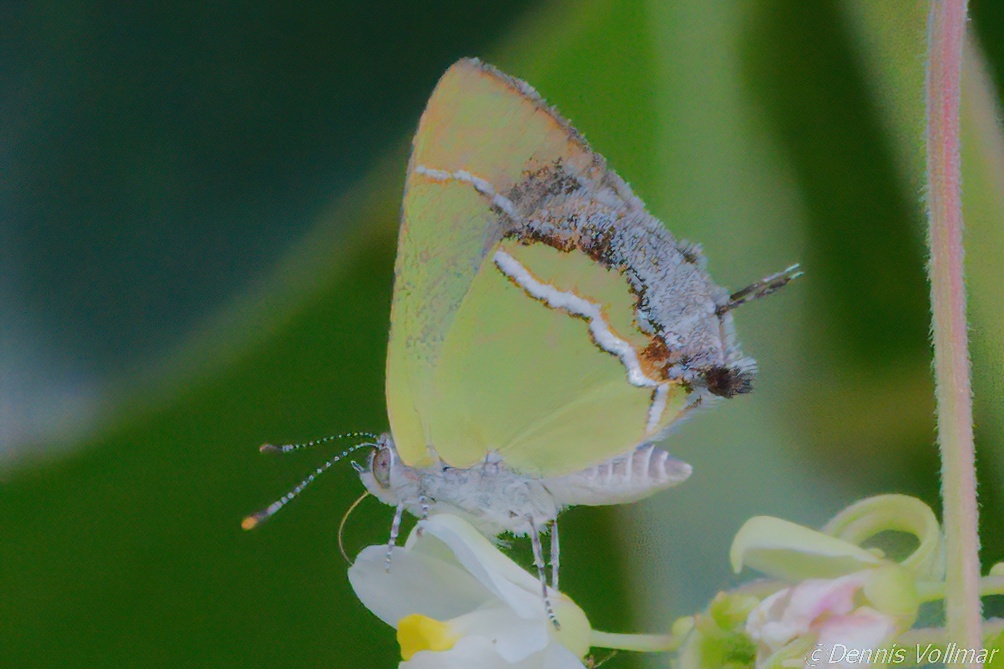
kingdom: Animalia
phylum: Arthropoda
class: Insecta
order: Lepidoptera
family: Lycaenidae
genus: Chlorostrymon
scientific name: Chlorostrymon simaethis
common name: Silver-banded hairstreak
